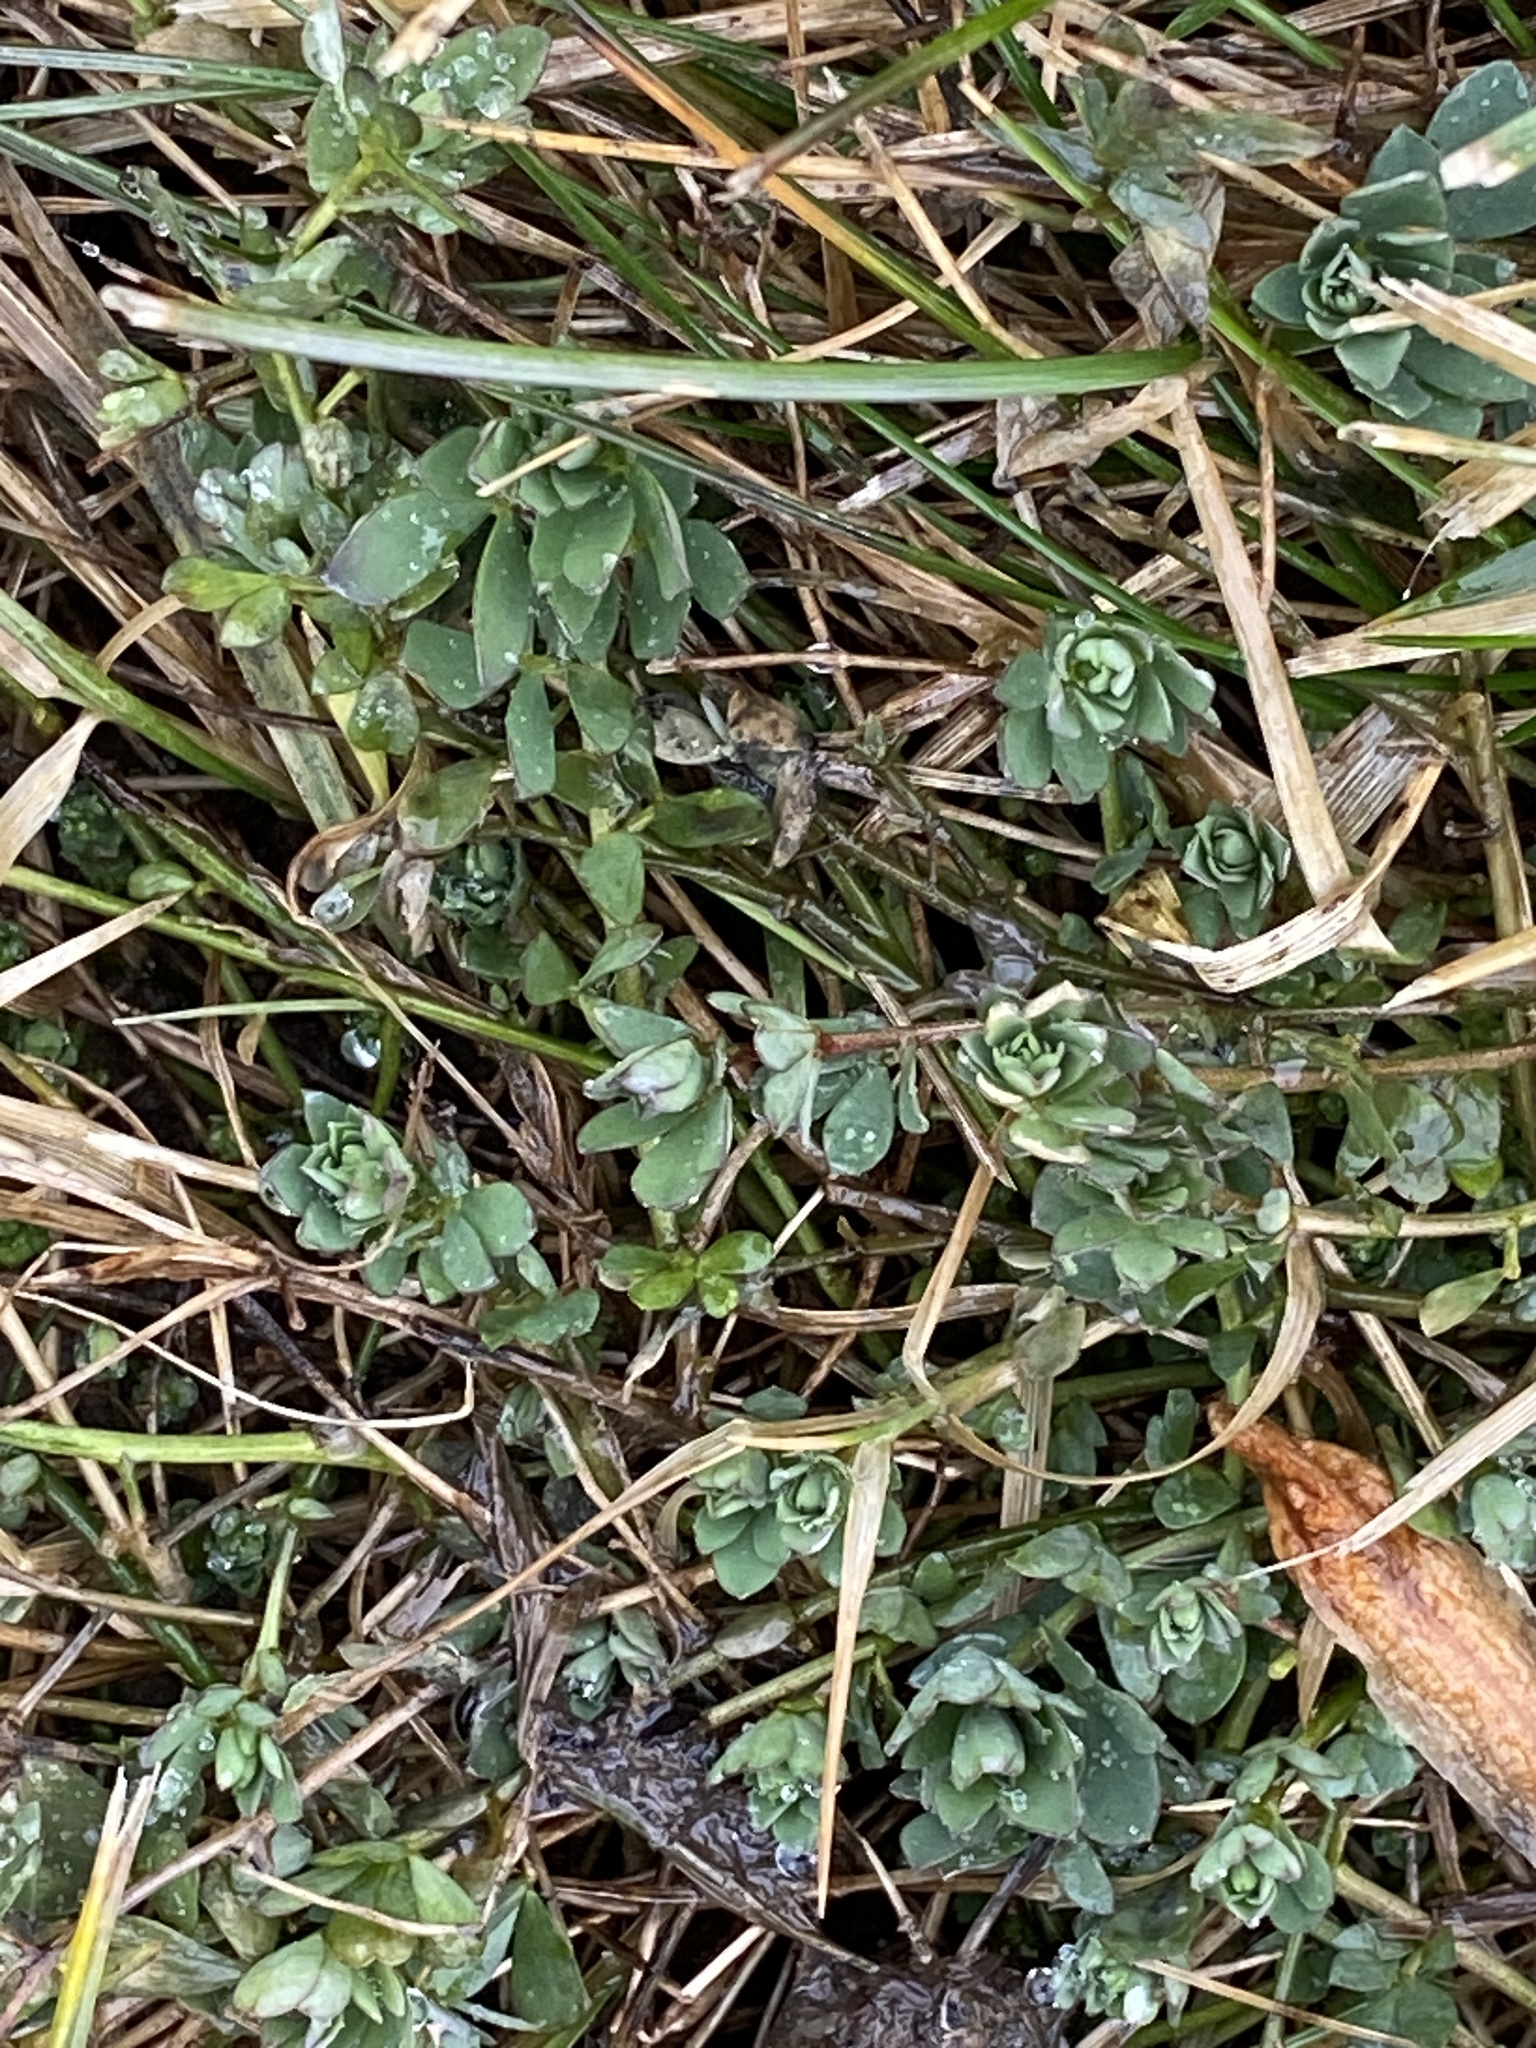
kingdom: Plantae
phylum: Tracheophyta
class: Magnoliopsida
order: Fabales
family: Fabaceae
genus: Lotus
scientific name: Lotus corniculatus
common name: Common bird's-foot-trefoil
